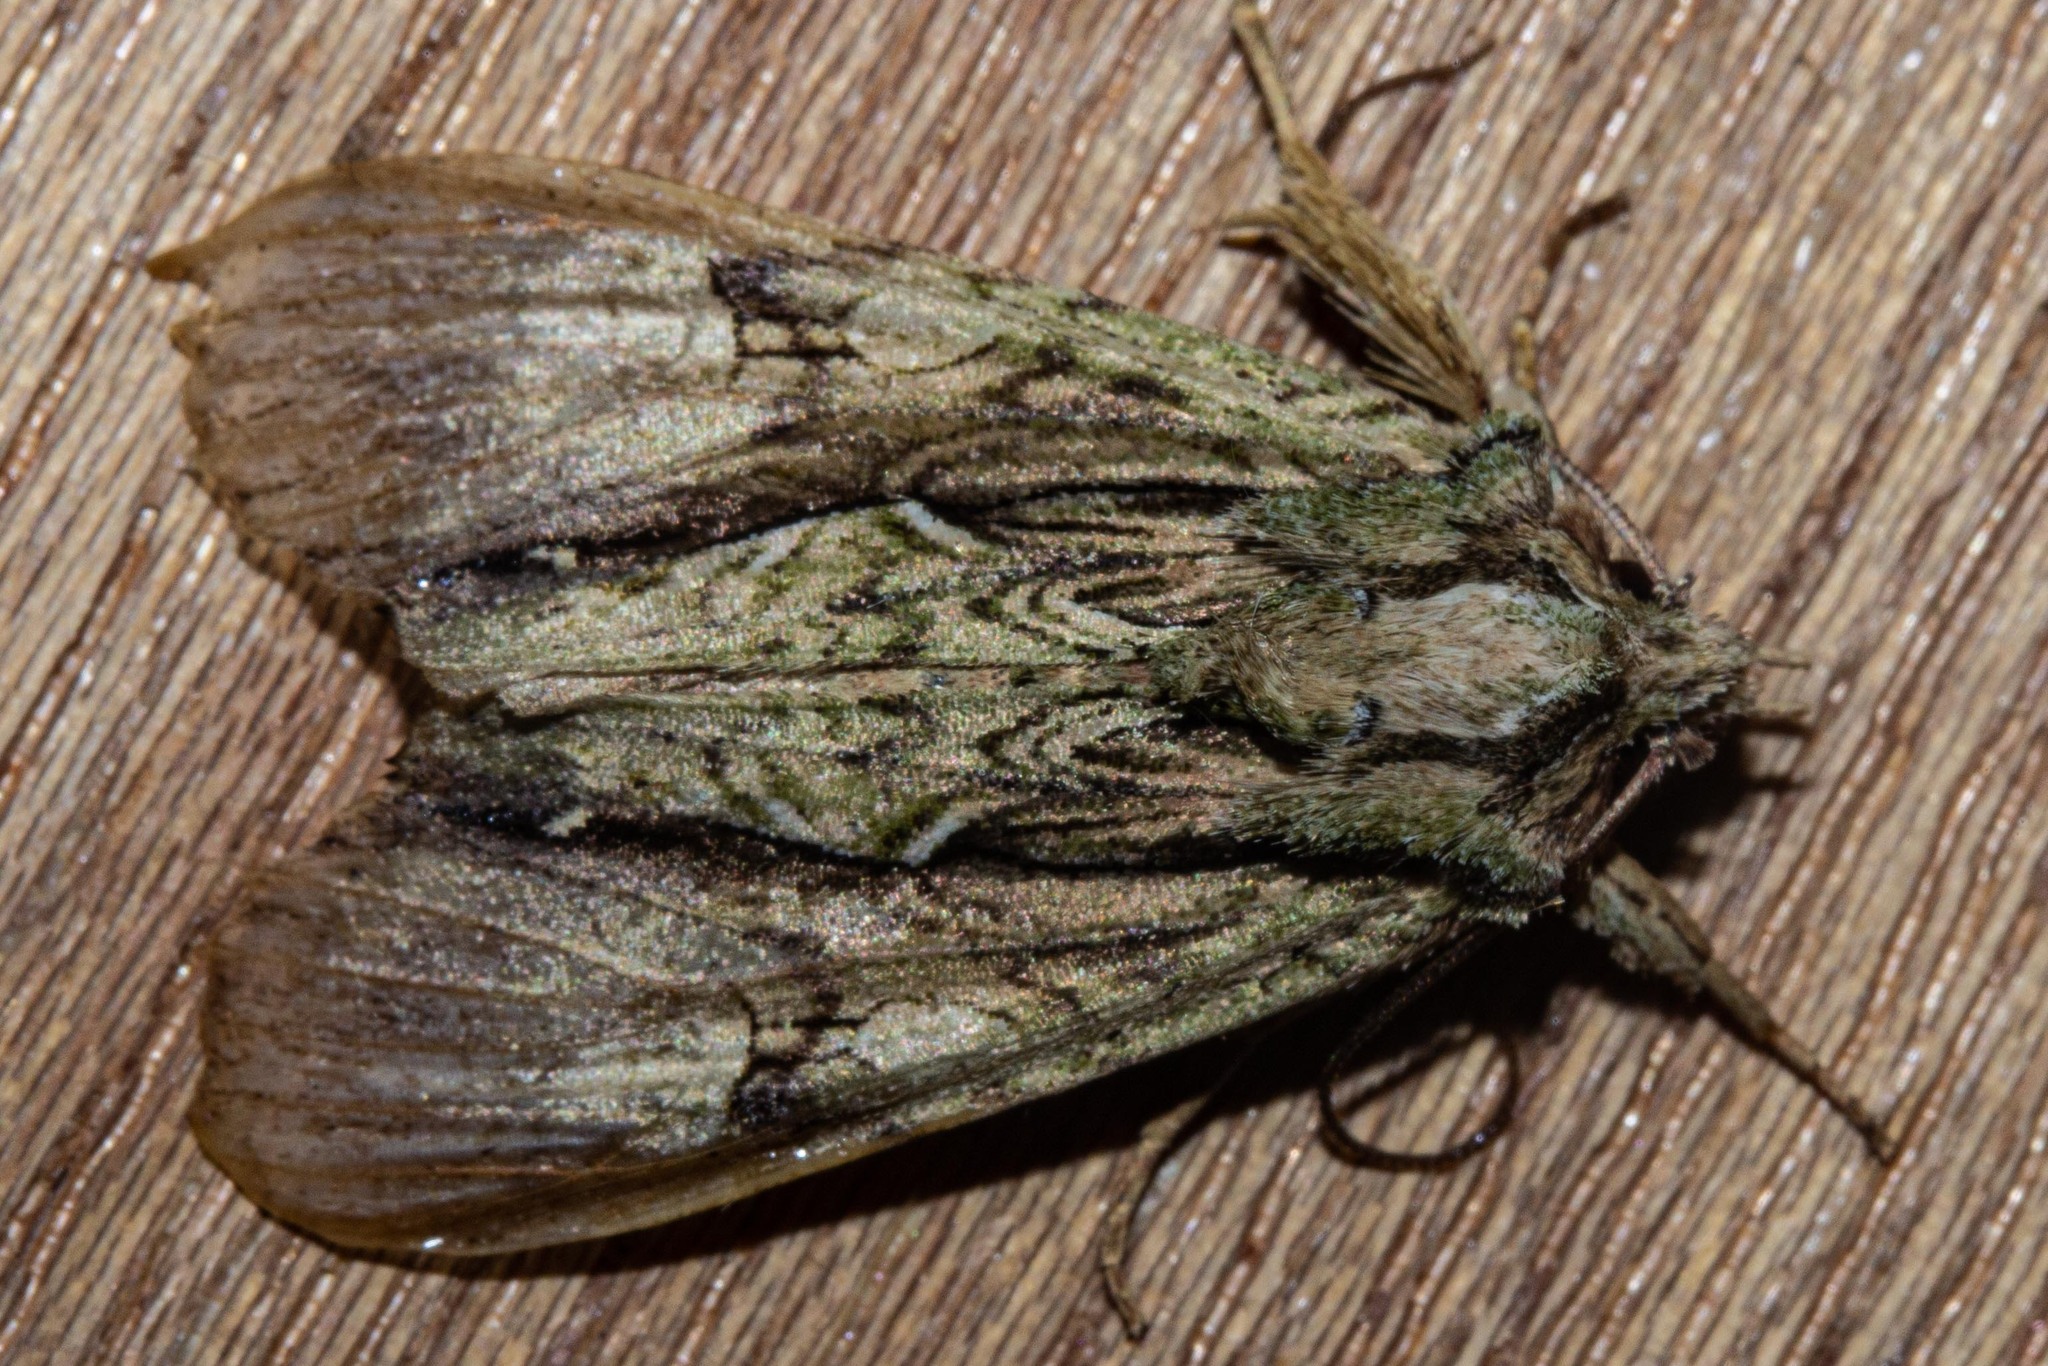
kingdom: Animalia
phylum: Arthropoda
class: Insecta
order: Lepidoptera
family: Noctuidae
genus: Meterana
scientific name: Meterana decorata
